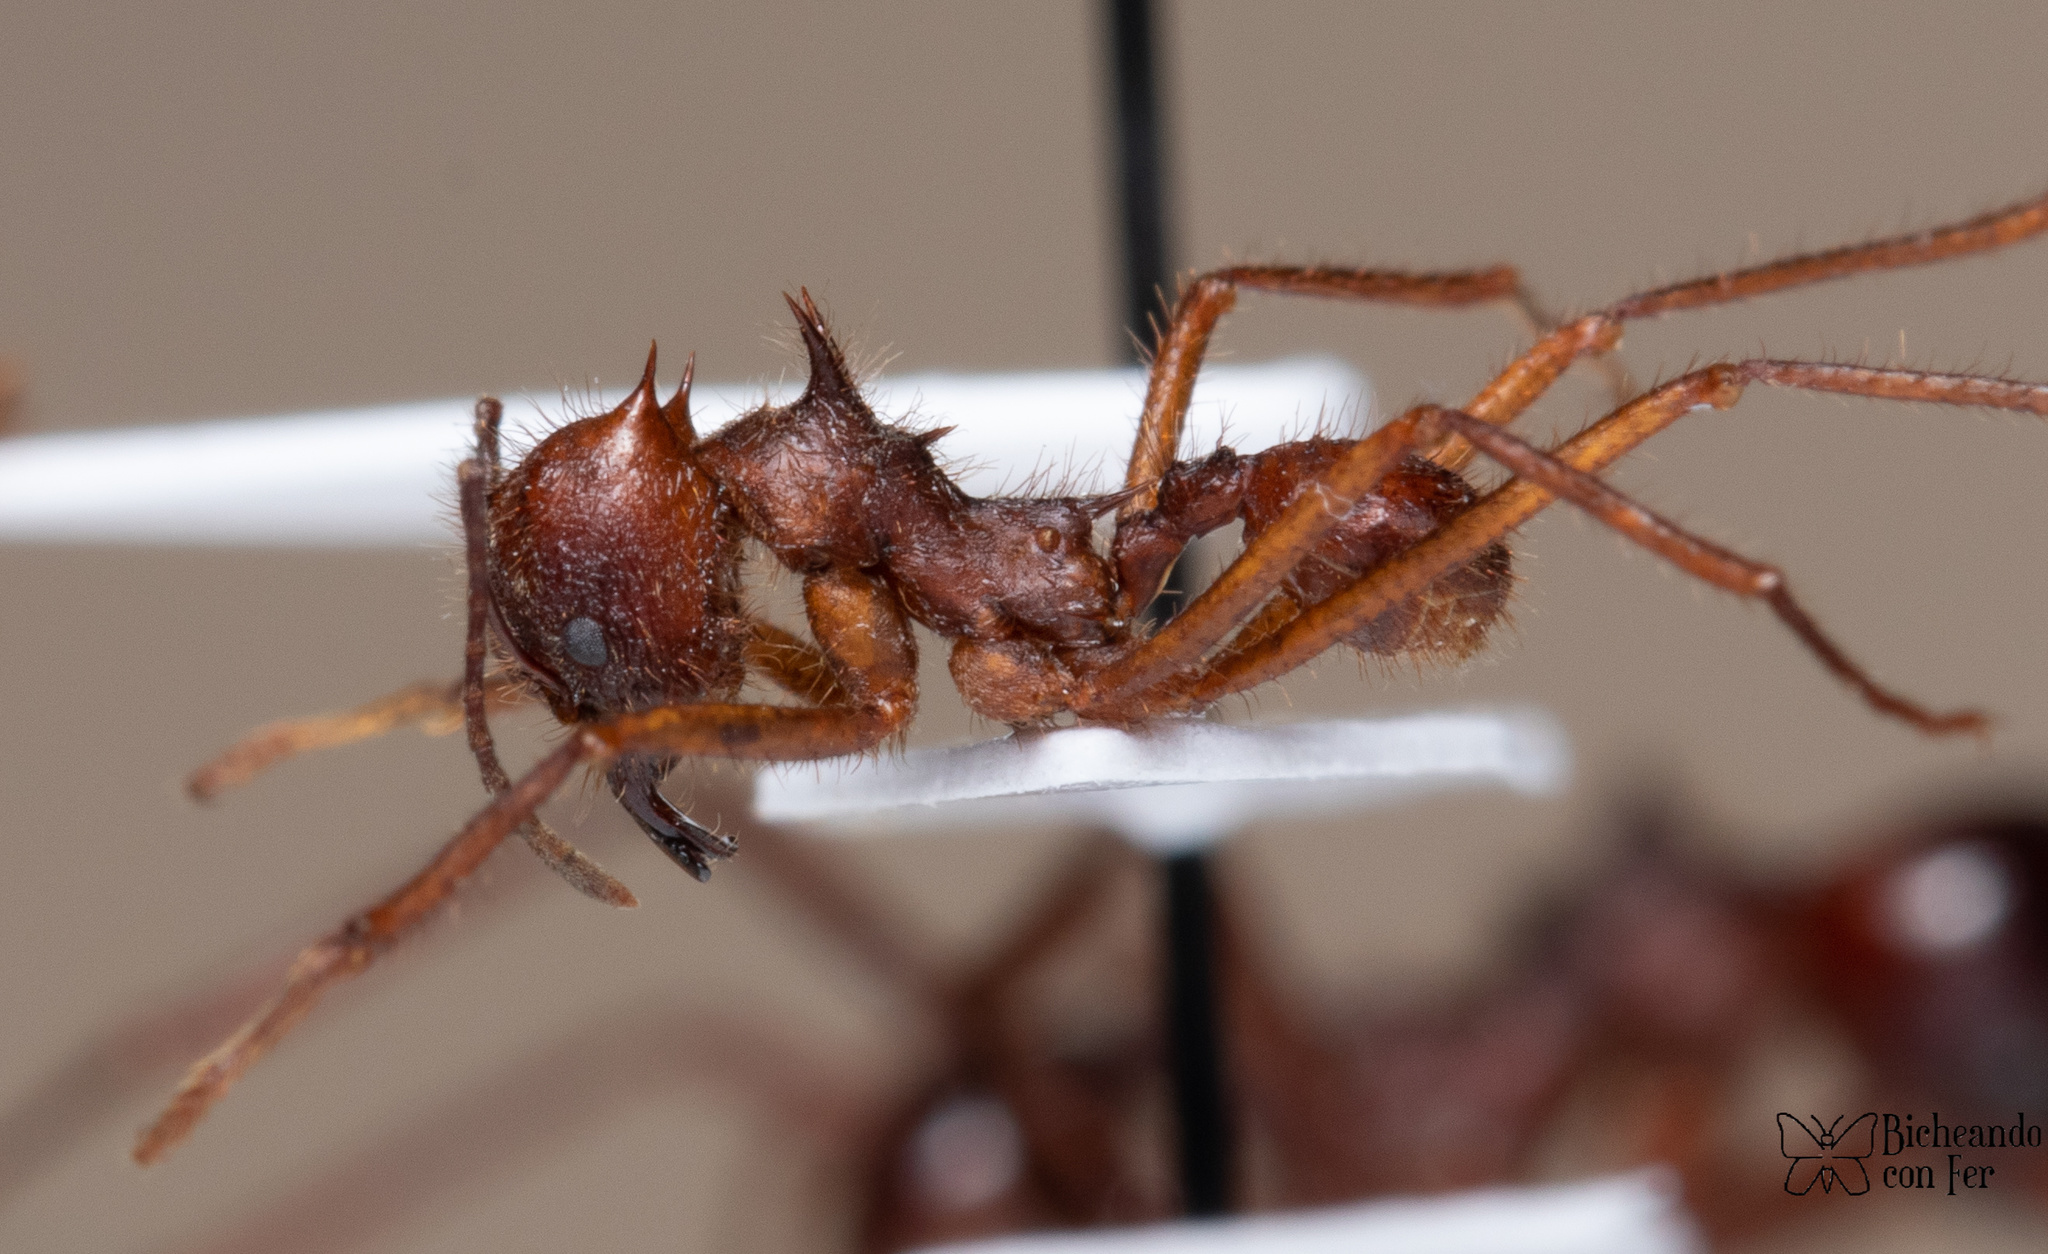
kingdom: Animalia
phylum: Arthropoda
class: Insecta
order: Hymenoptera
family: Formicidae
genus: Atta
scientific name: Atta mexicana
